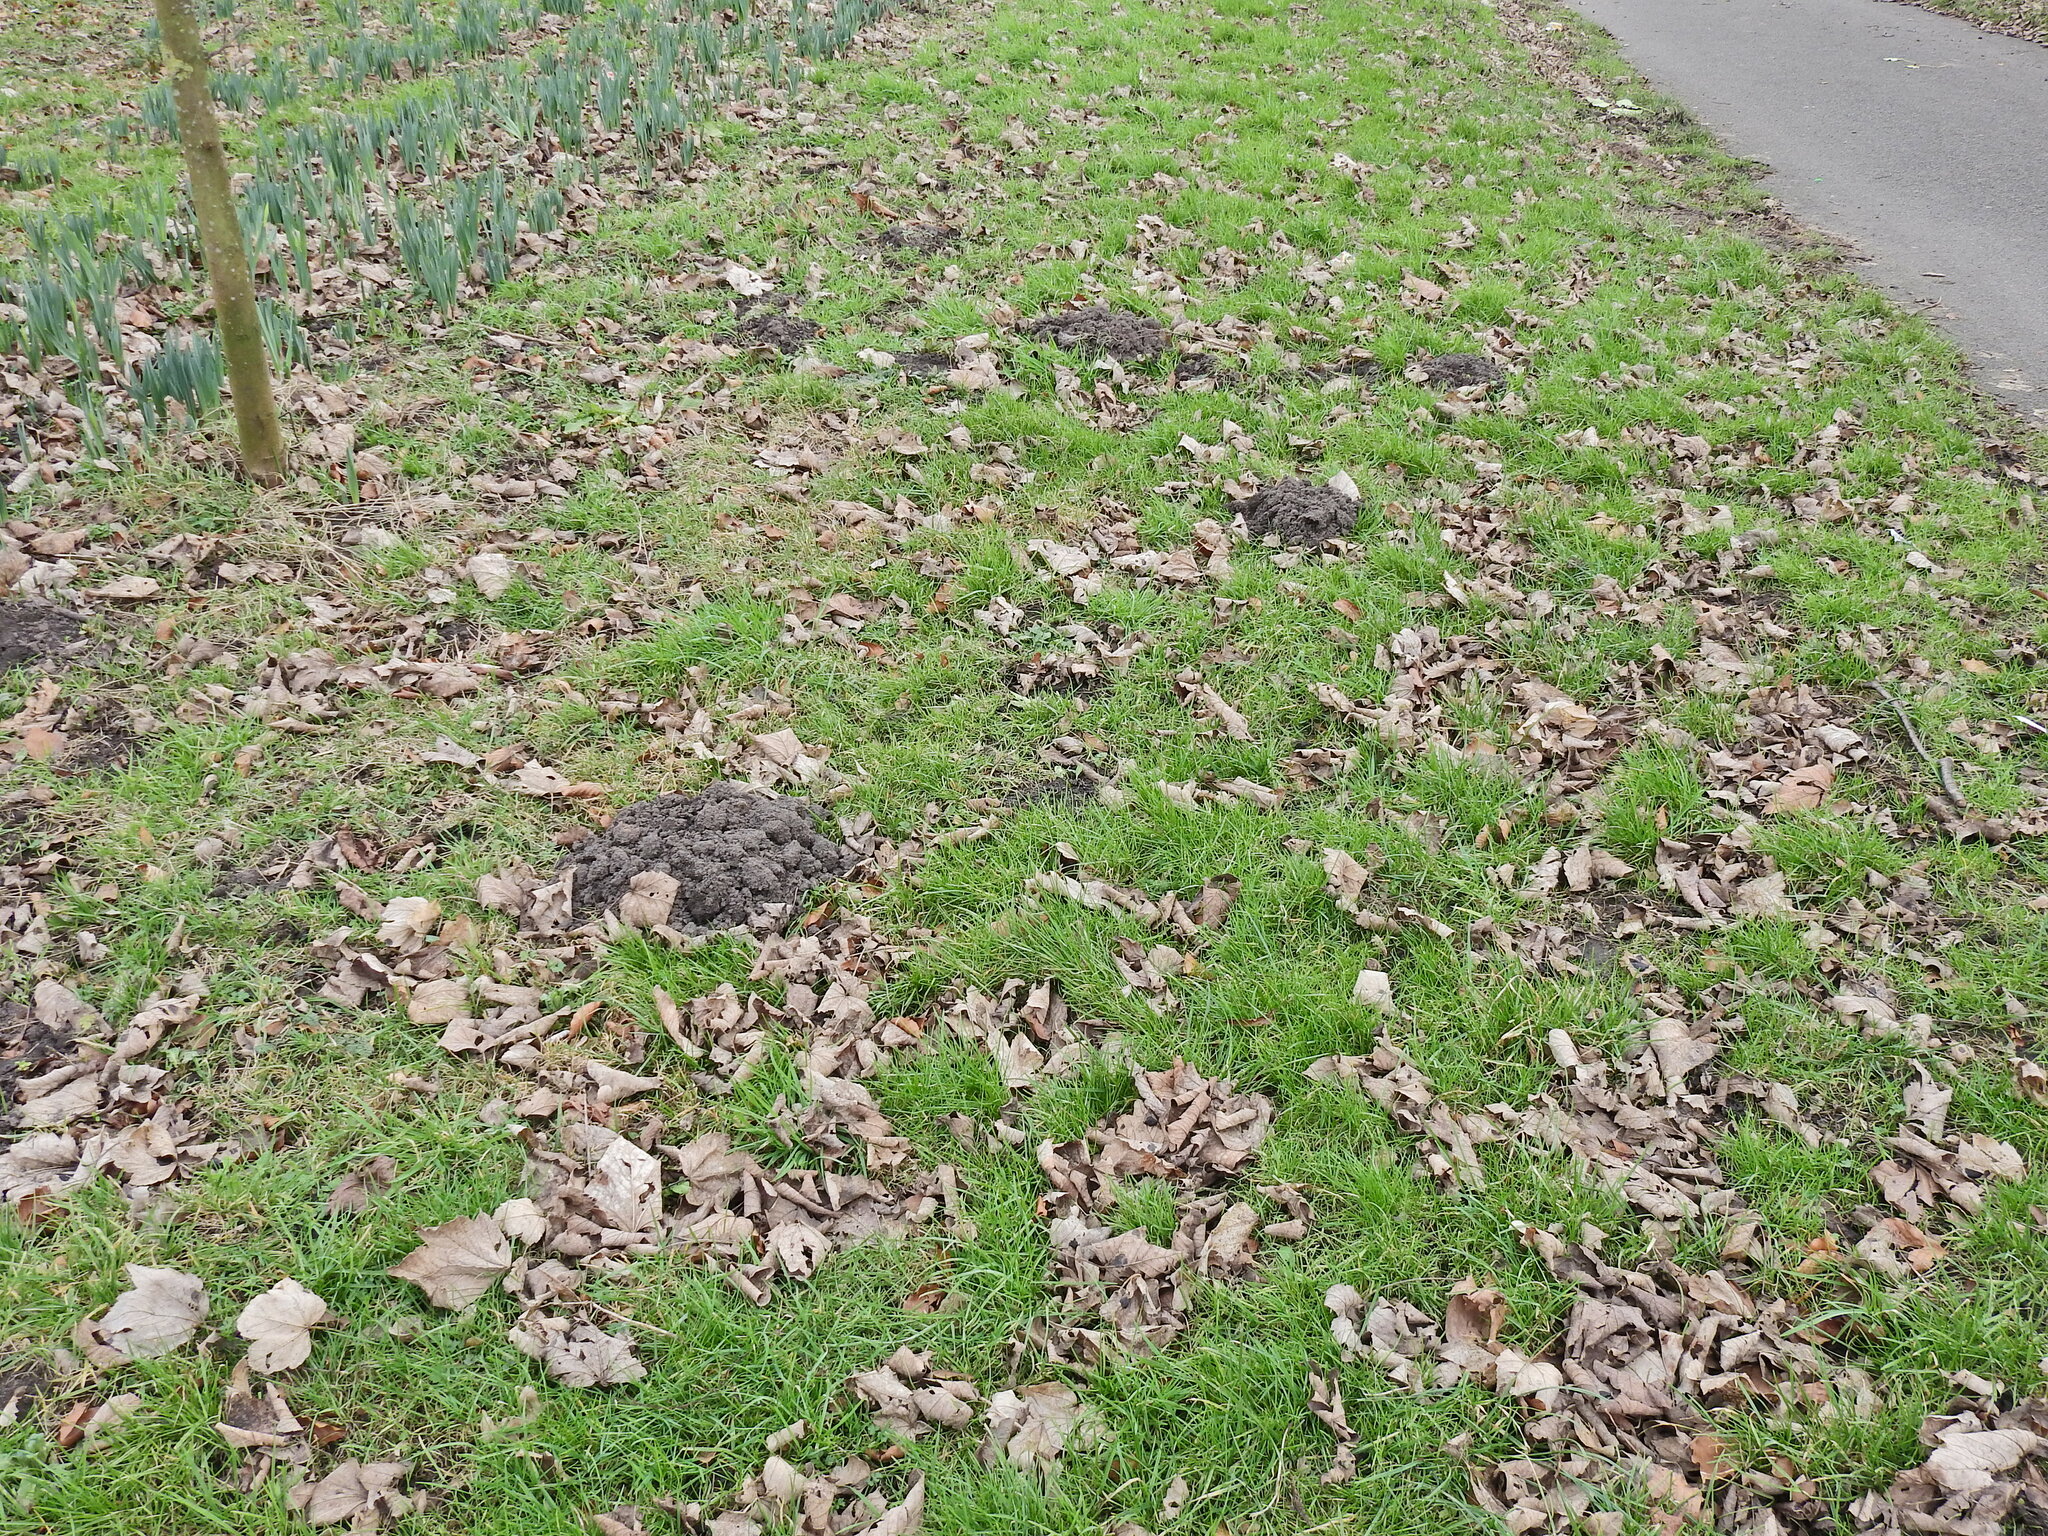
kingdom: Animalia
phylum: Chordata
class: Mammalia
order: Soricomorpha
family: Talpidae
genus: Talpa
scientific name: Talpa europaea
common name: European mole
